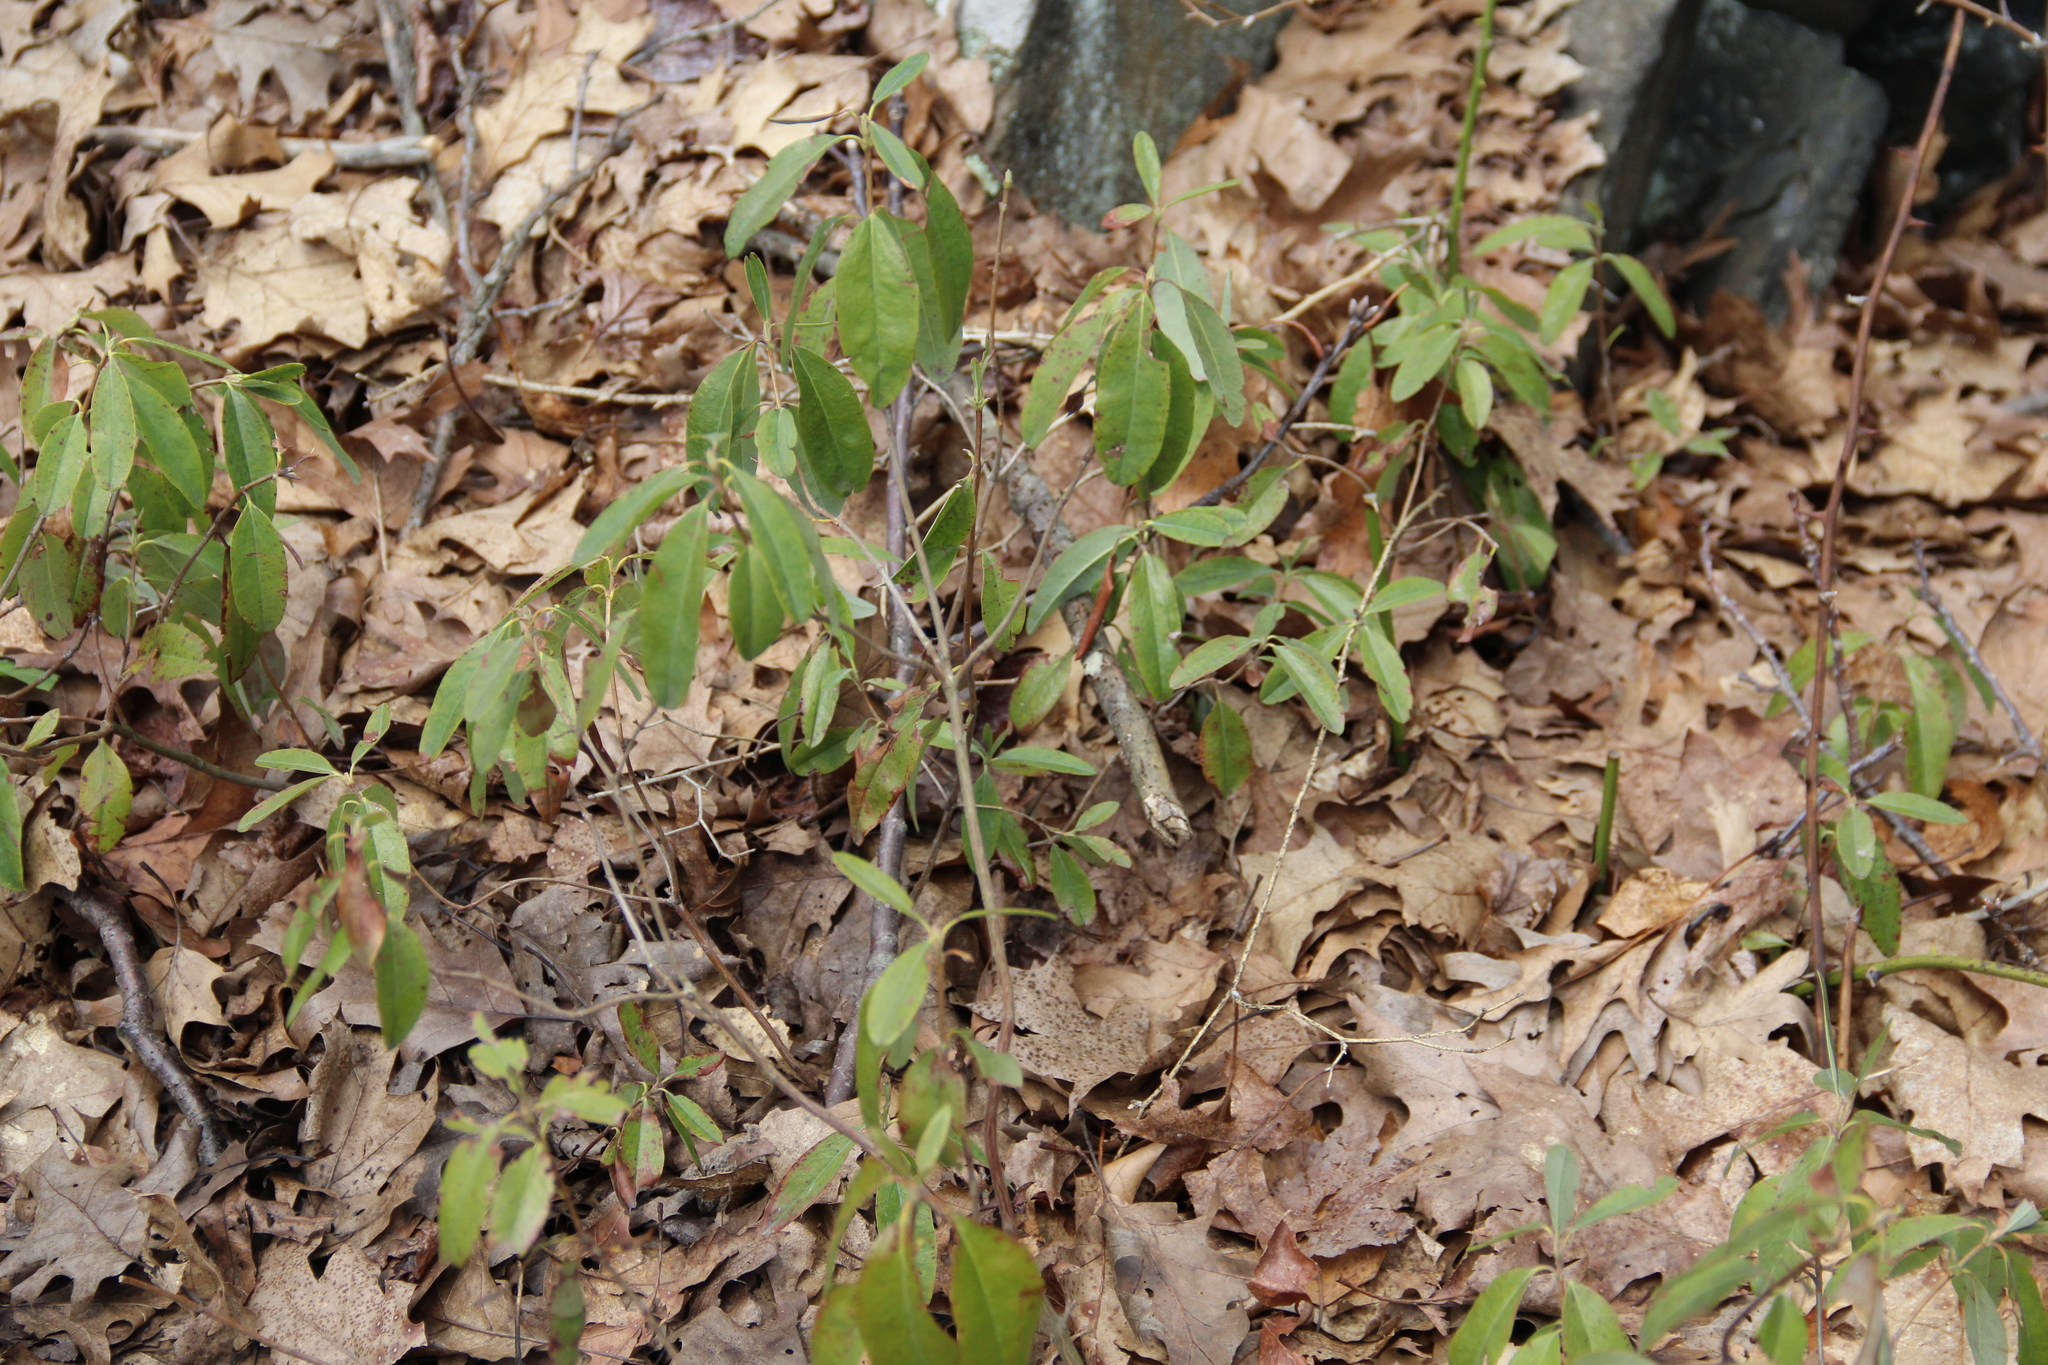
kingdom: Plantae
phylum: Tracheophyta
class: Magnoliopsida
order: Ericales
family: Ericaceae
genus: Kalmia
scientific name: Kalmia angustifolia
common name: Sheep-laurel
